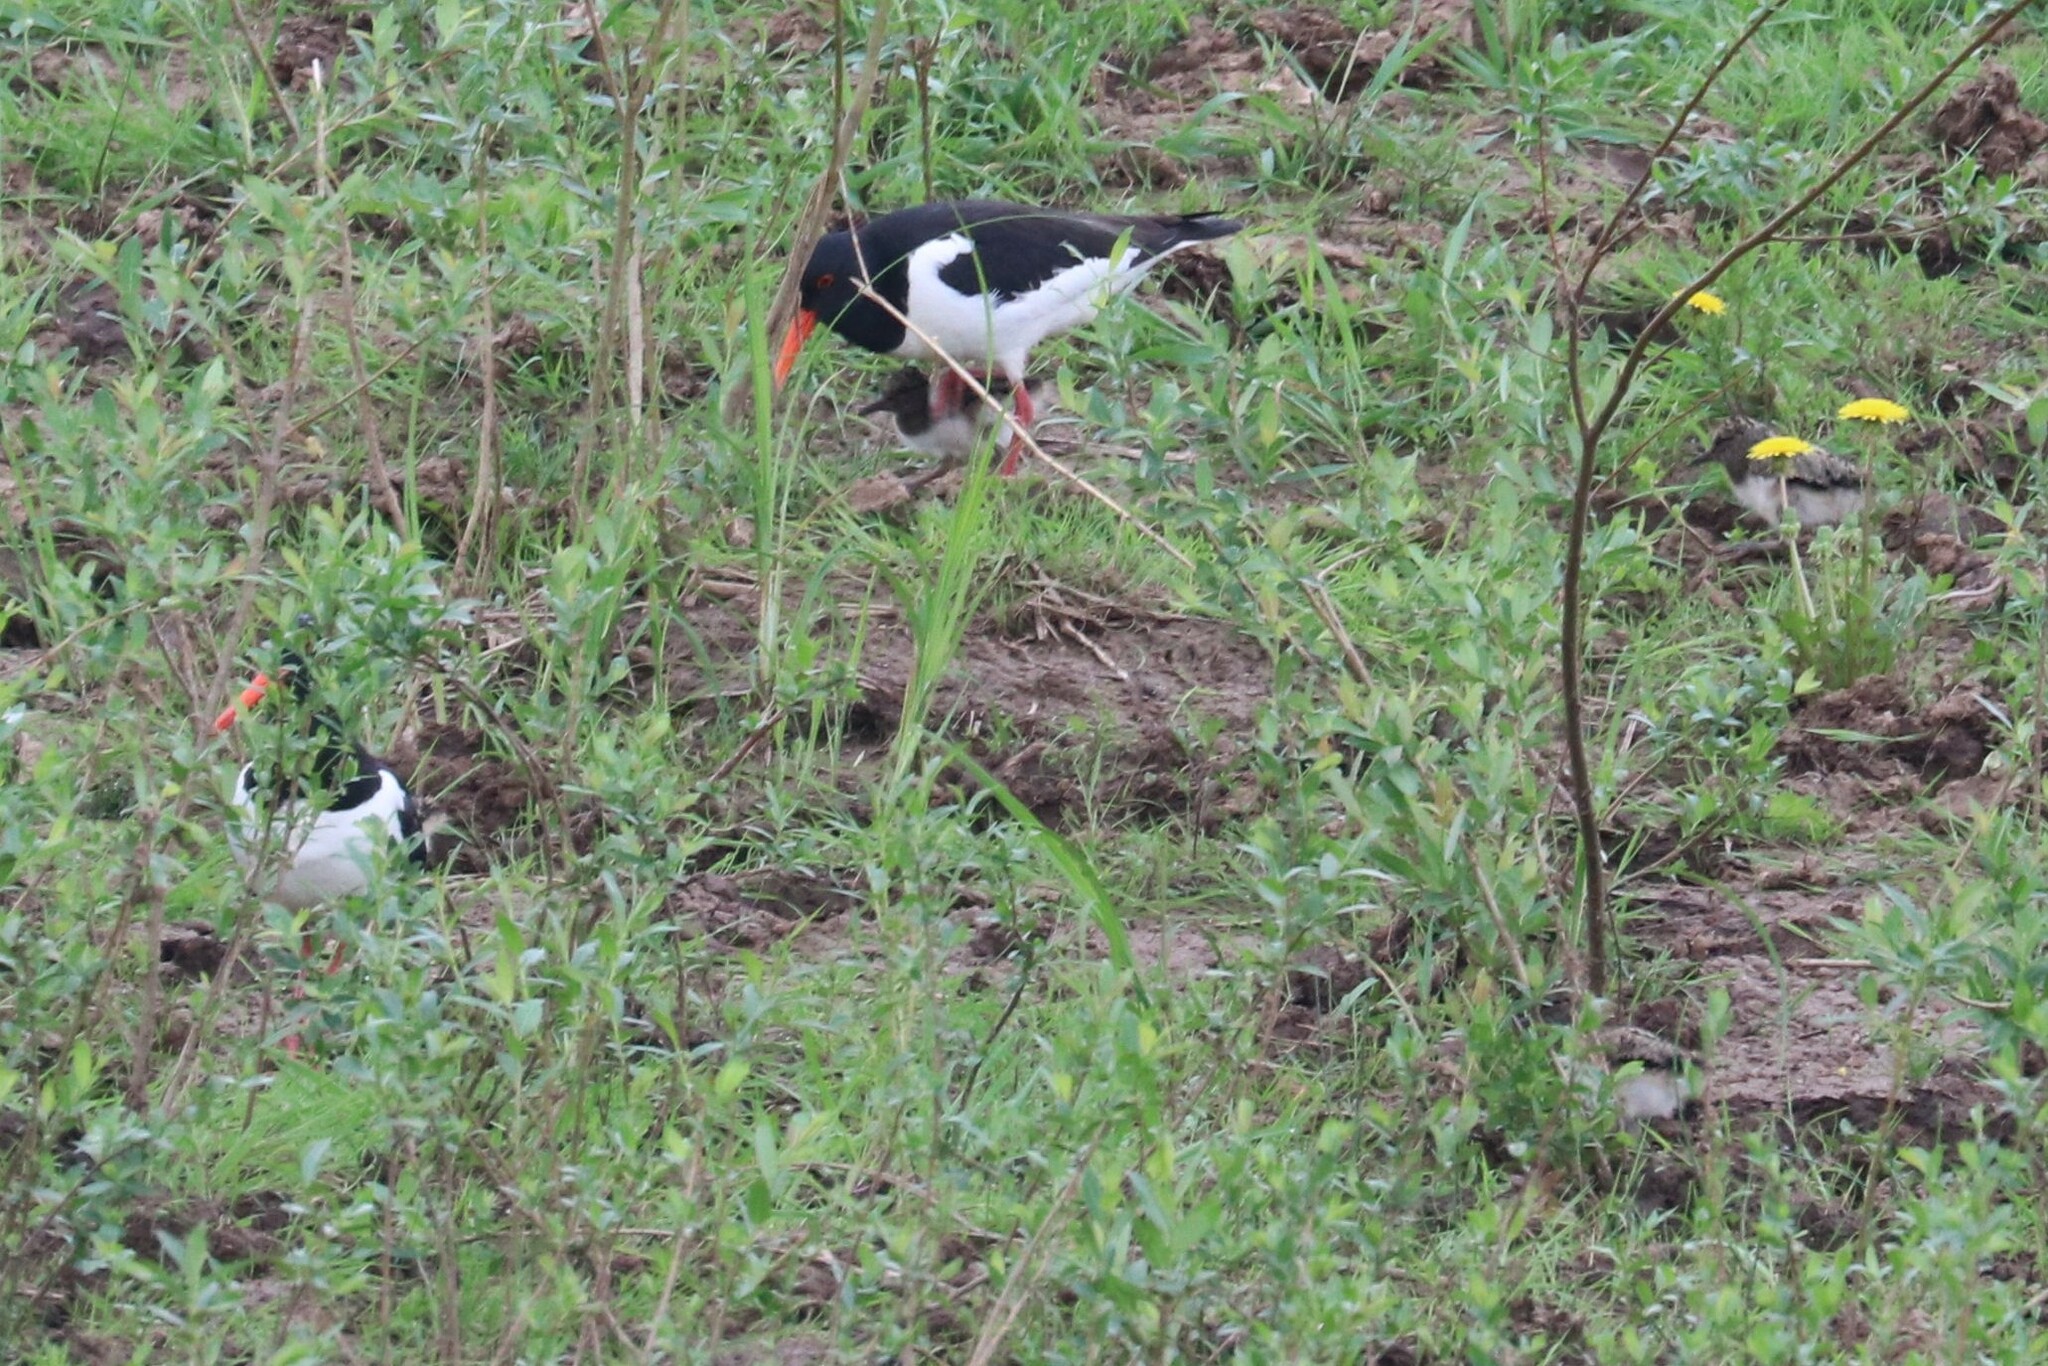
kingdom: Animalia
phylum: Chordata
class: Aves
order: Charadriiformes
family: Haematopodidae
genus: Haematopus
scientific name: Haematopus ostralegus
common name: Eurasian oystercatcher
